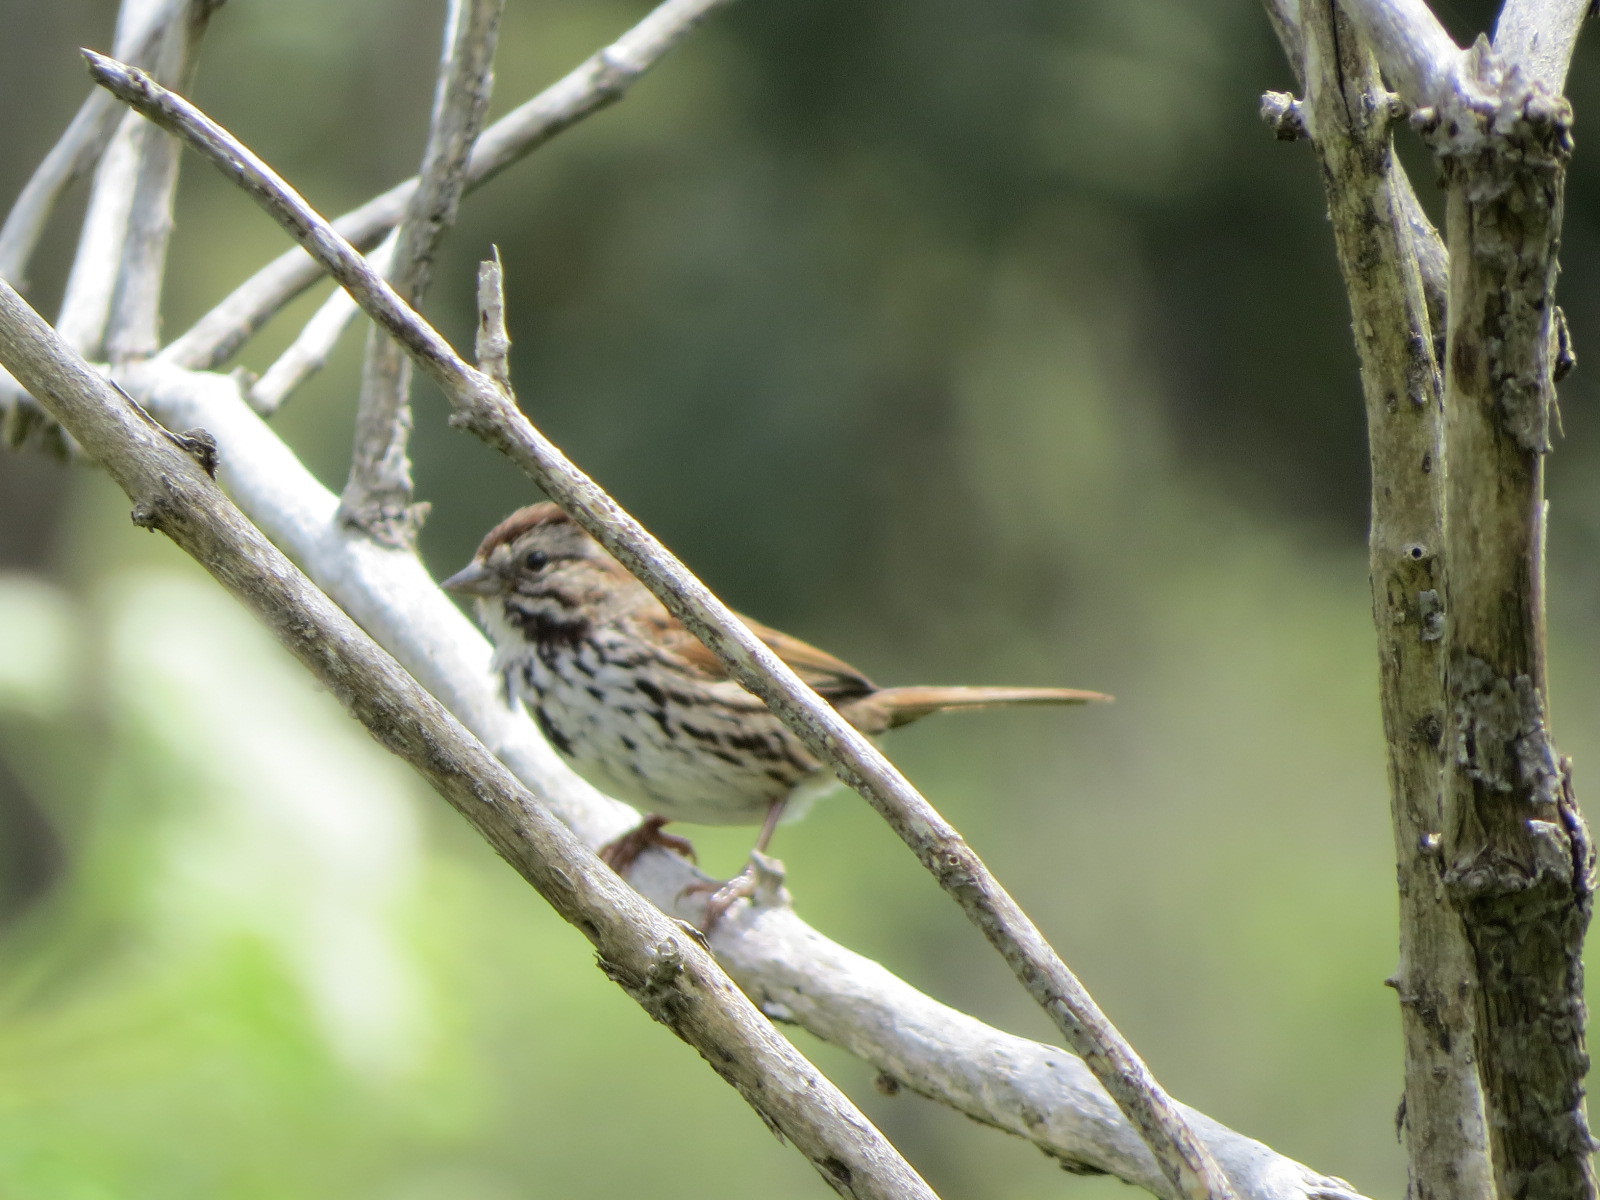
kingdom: Animalia
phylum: Chordata
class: Aves
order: Passeriformes
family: Passerellidae
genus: Melospiza
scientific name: Melospiza melodia
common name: Song sparrow
